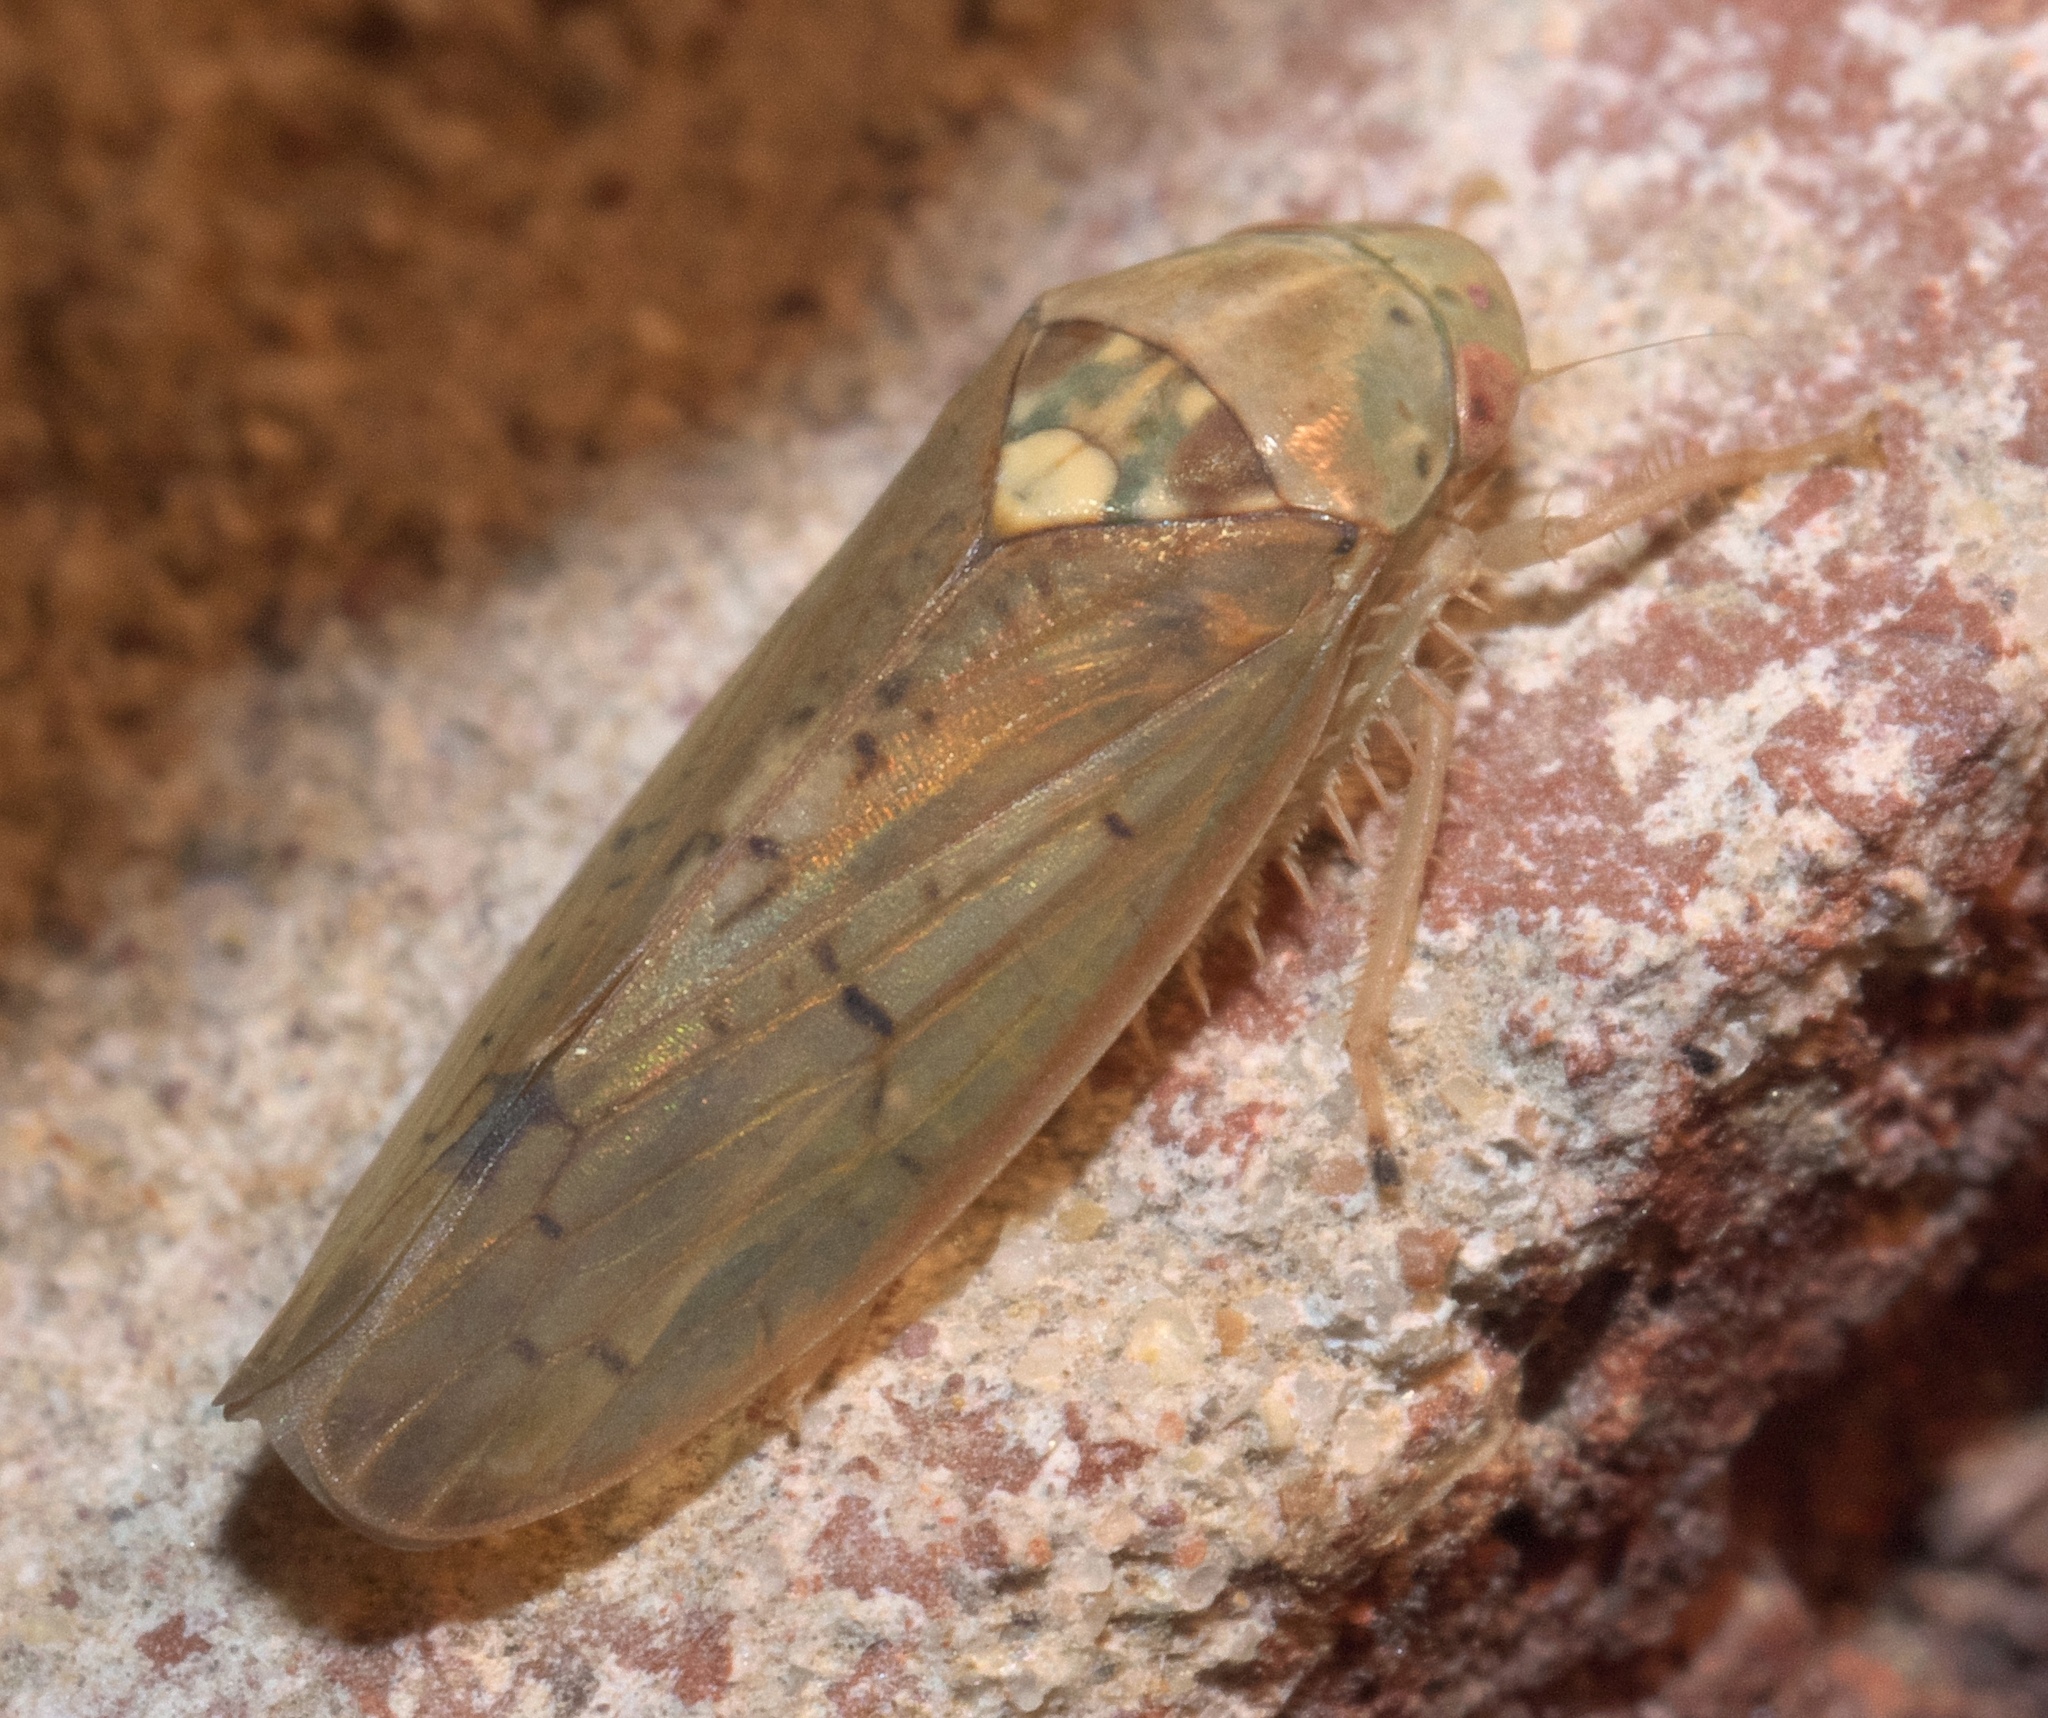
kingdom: Animalia
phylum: Arthropoda
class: Insecta
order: Hemiptera
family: Cicadellidae
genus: Ponana
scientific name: Ponana quadralaba
